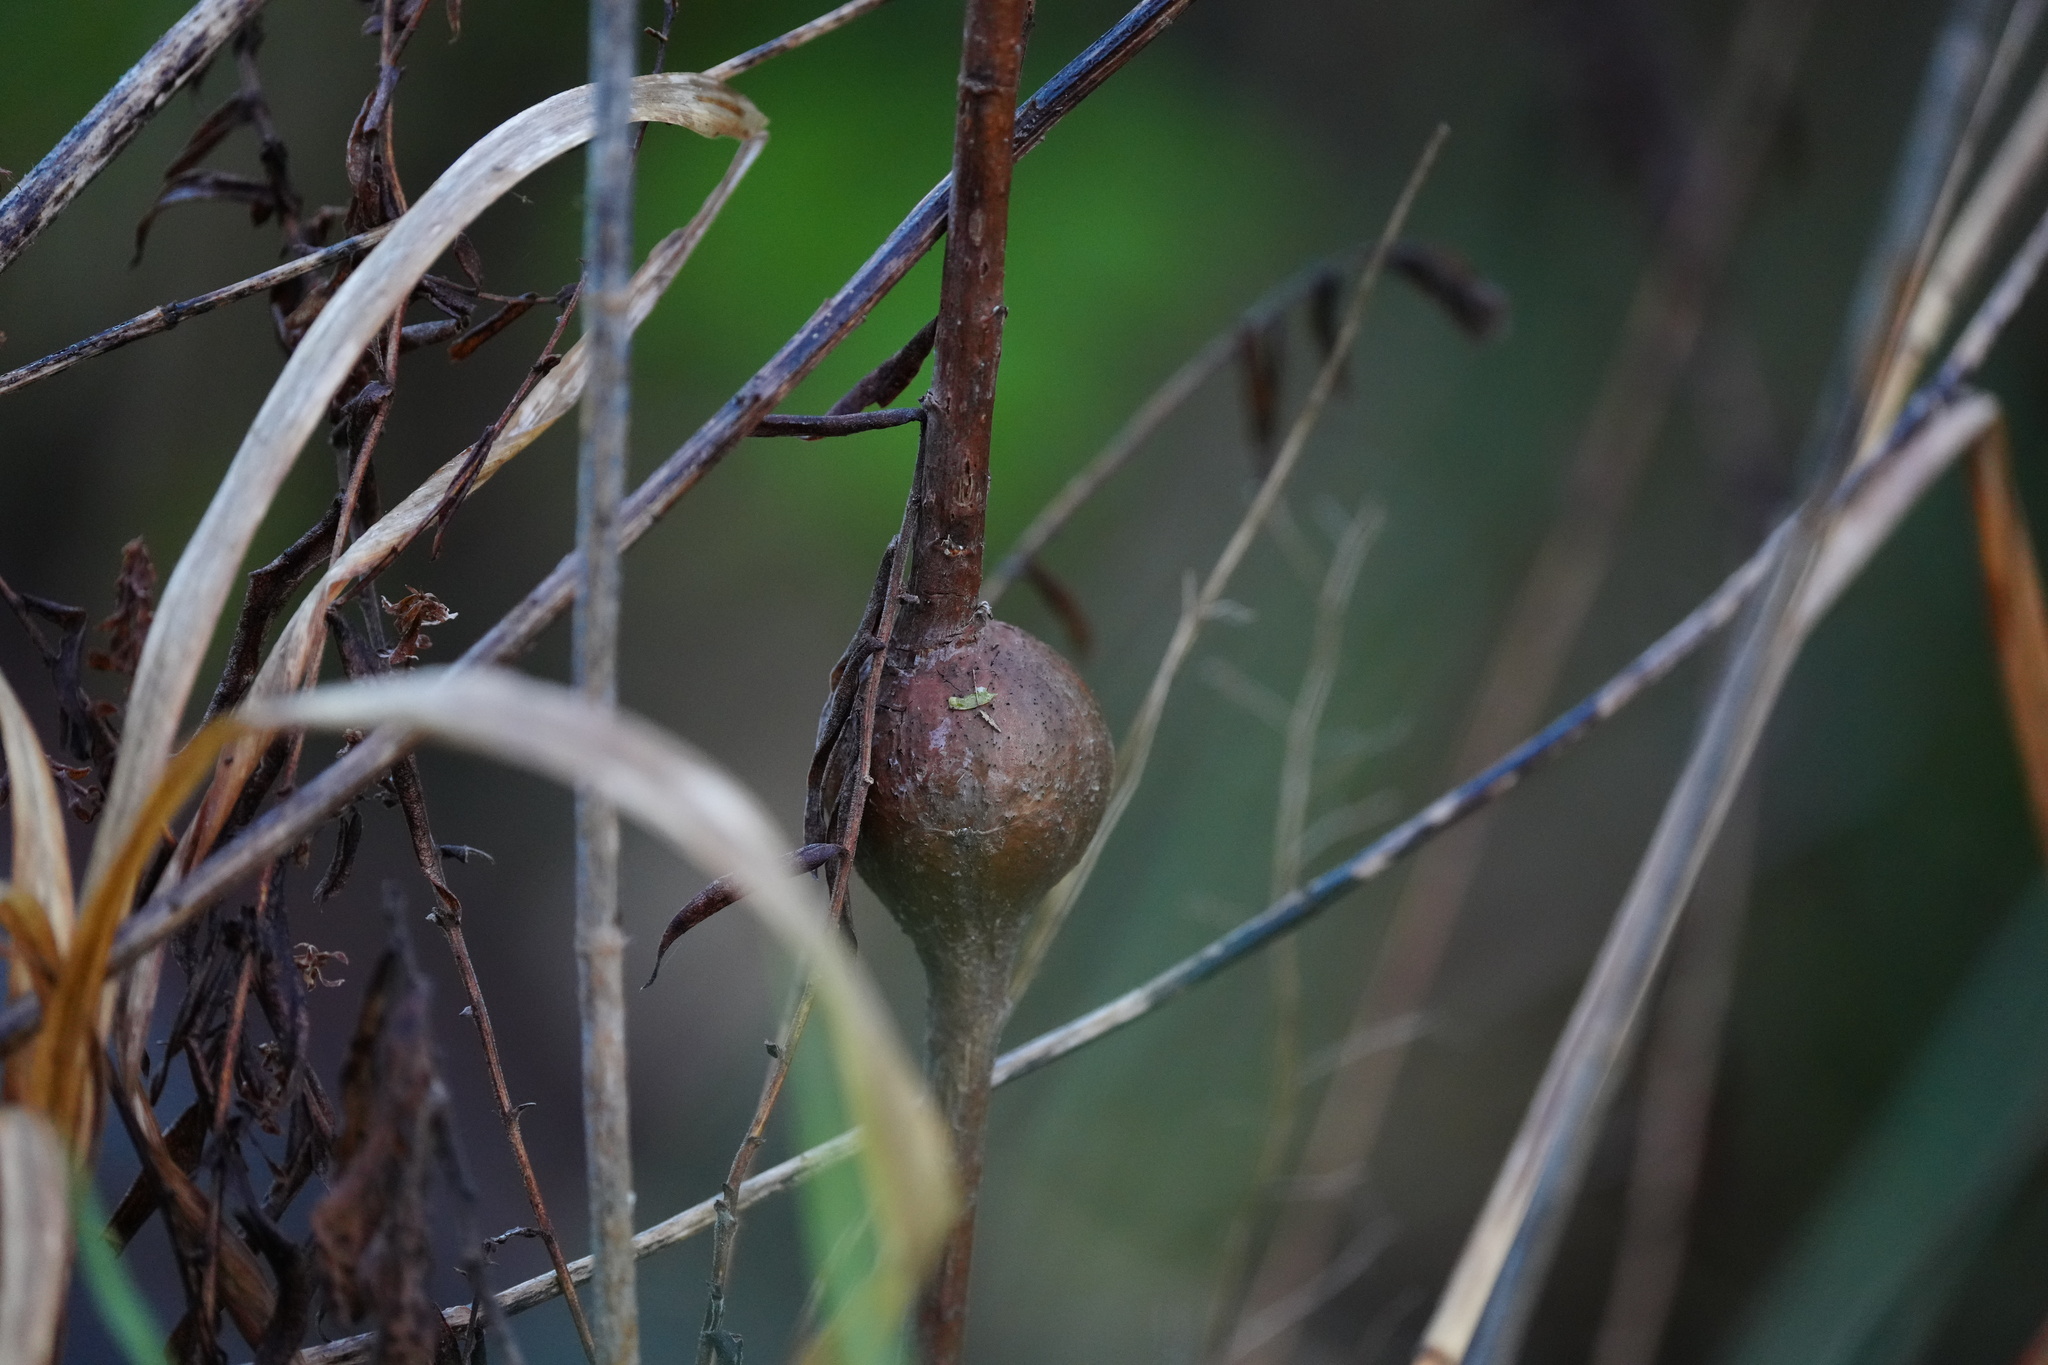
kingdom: Animalia
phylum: Arthropoda
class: Insecta
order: Diptera
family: Tephritidae
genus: Eurosta
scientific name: Eurosta solidaginis
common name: Goldenrod gall fly
